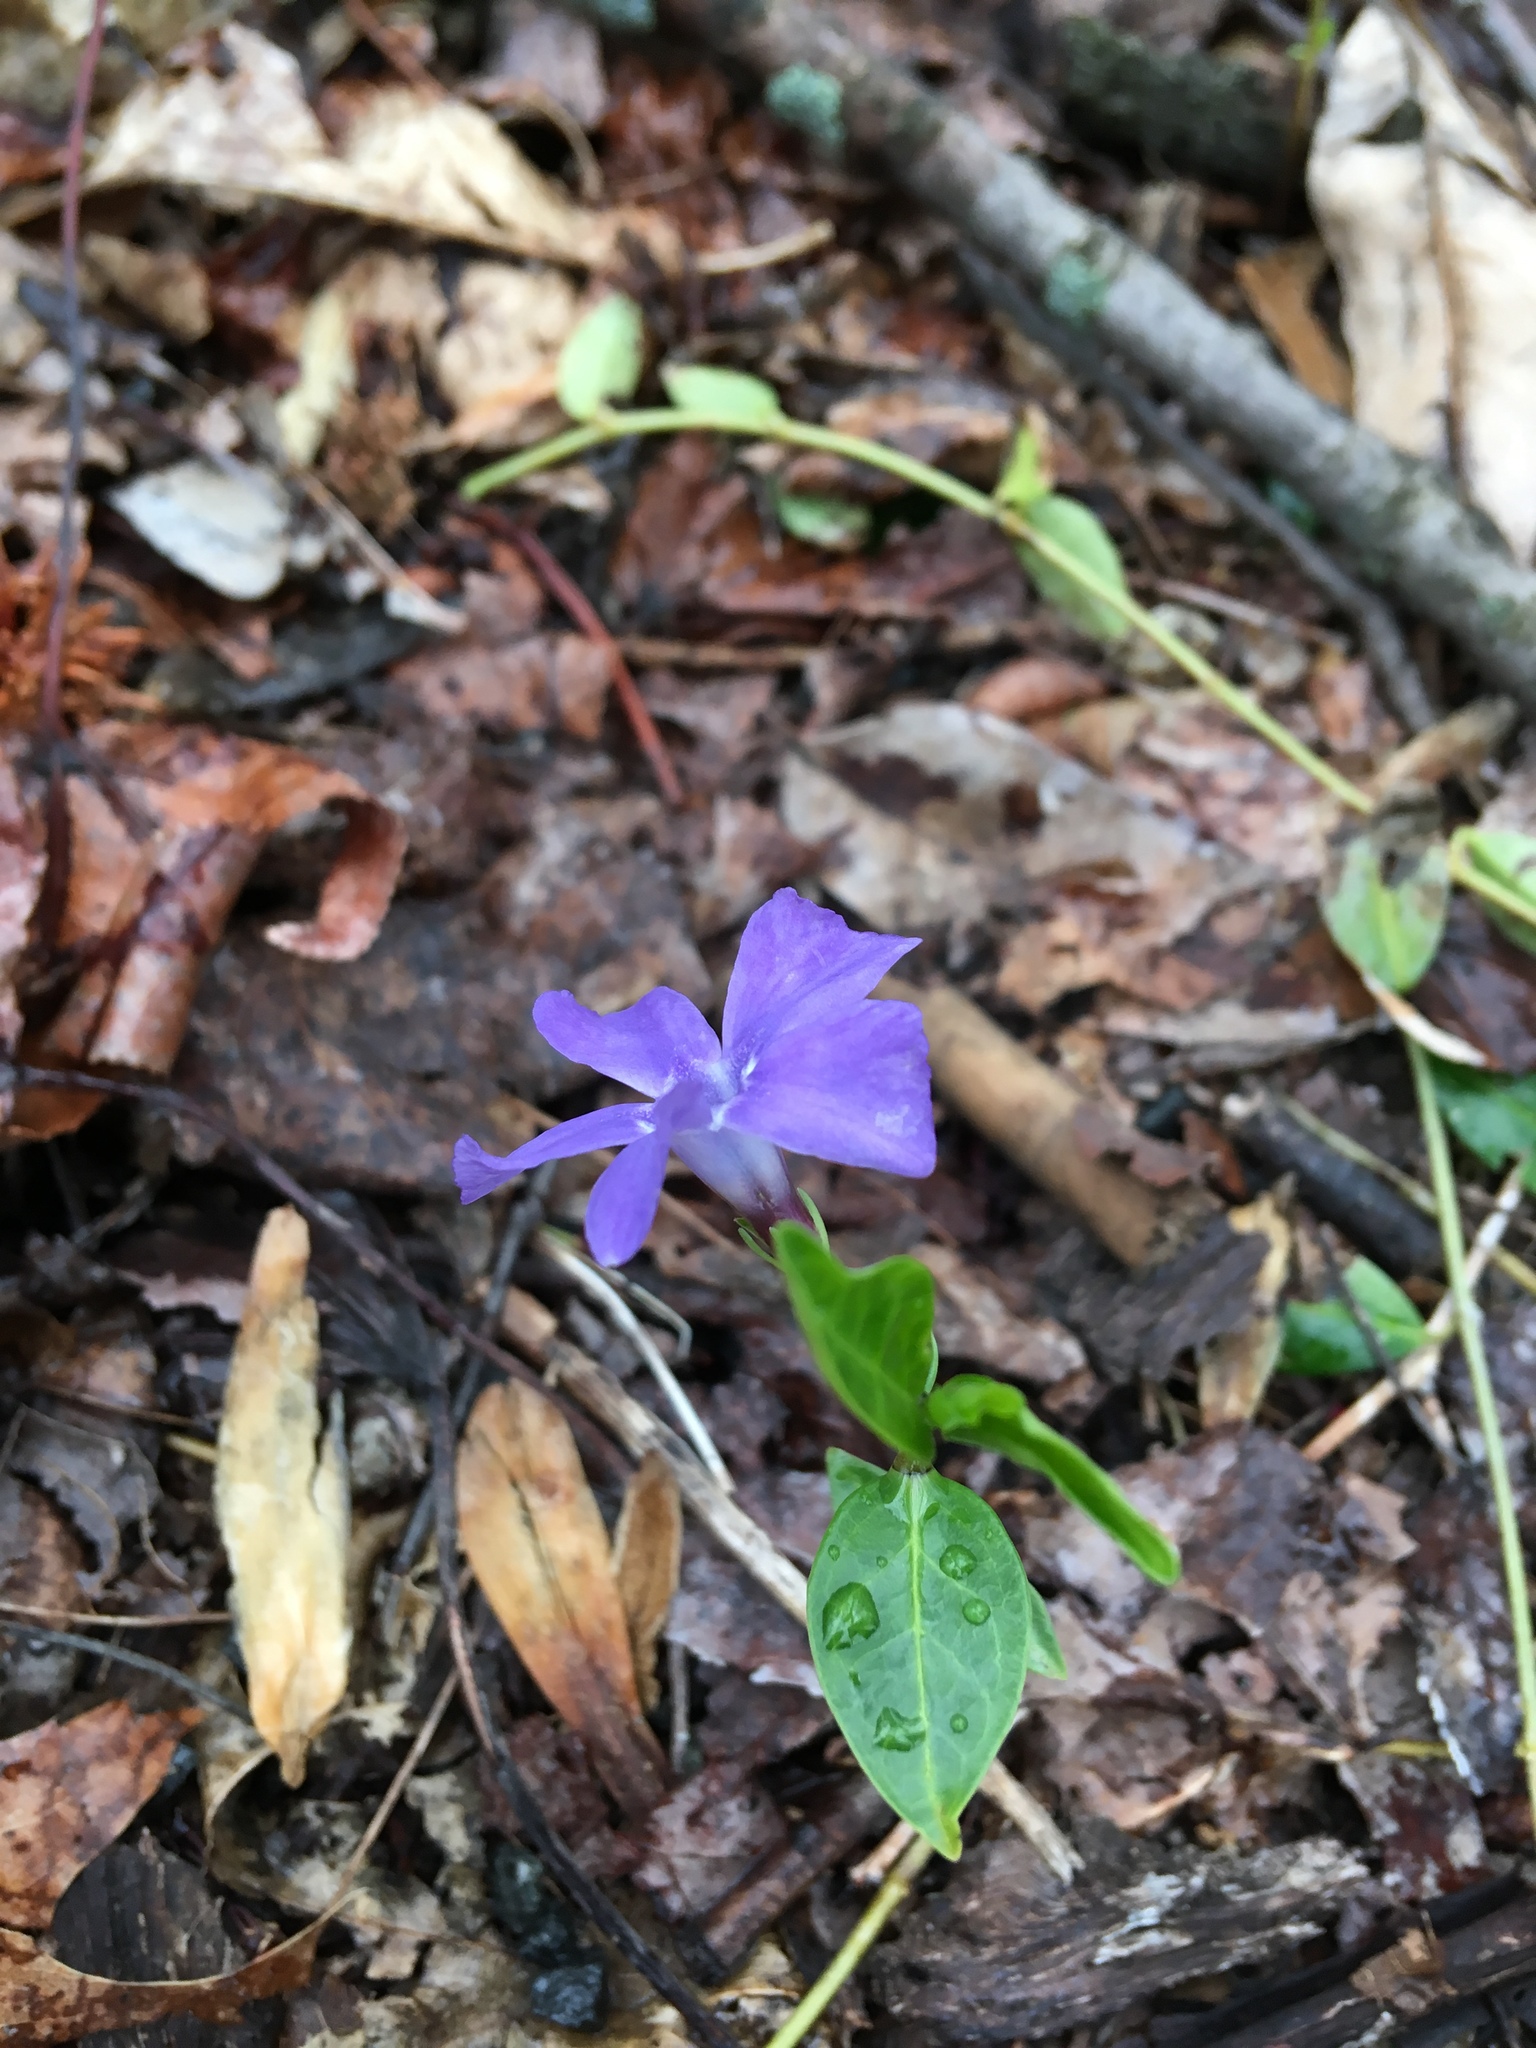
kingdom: Plantae
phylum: Tracheophyta
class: Magnoliopsida
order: Gentianales
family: Apocynaceae
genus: Vinca
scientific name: Vinca minor
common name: Lesser periwinkle
